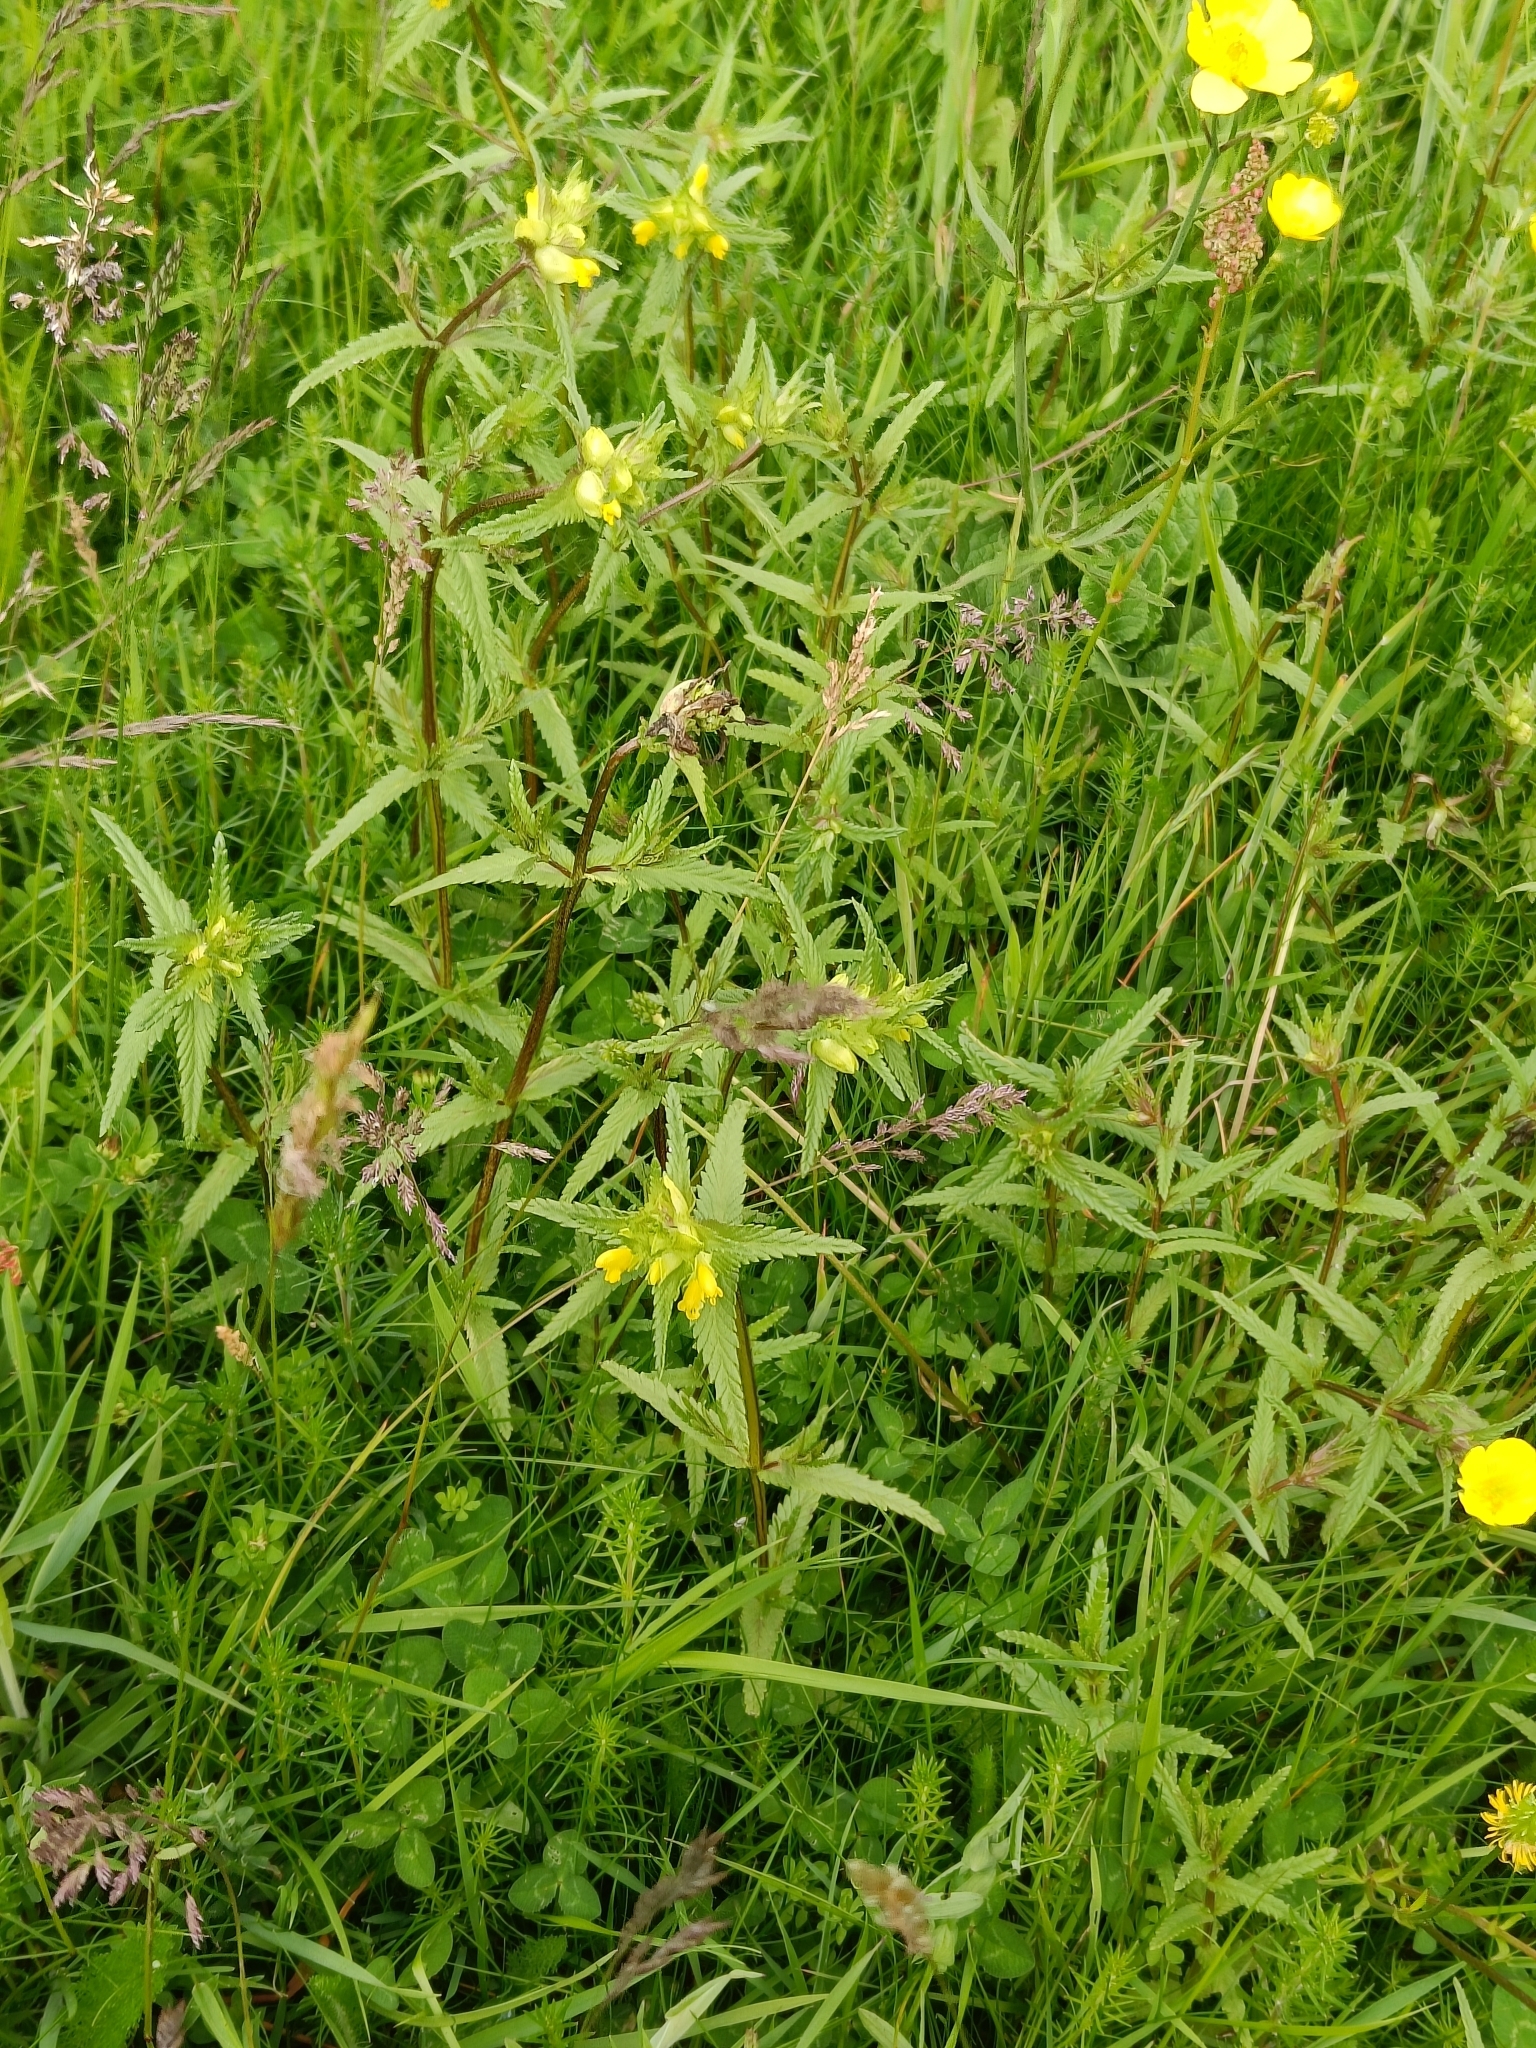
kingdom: Plantae
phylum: Tracheophyta
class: Magnoliopsida
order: Lamiales
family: Orobanchaceae
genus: Rhinanthus
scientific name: Rhinanthus minor
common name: Yellow-rattle
